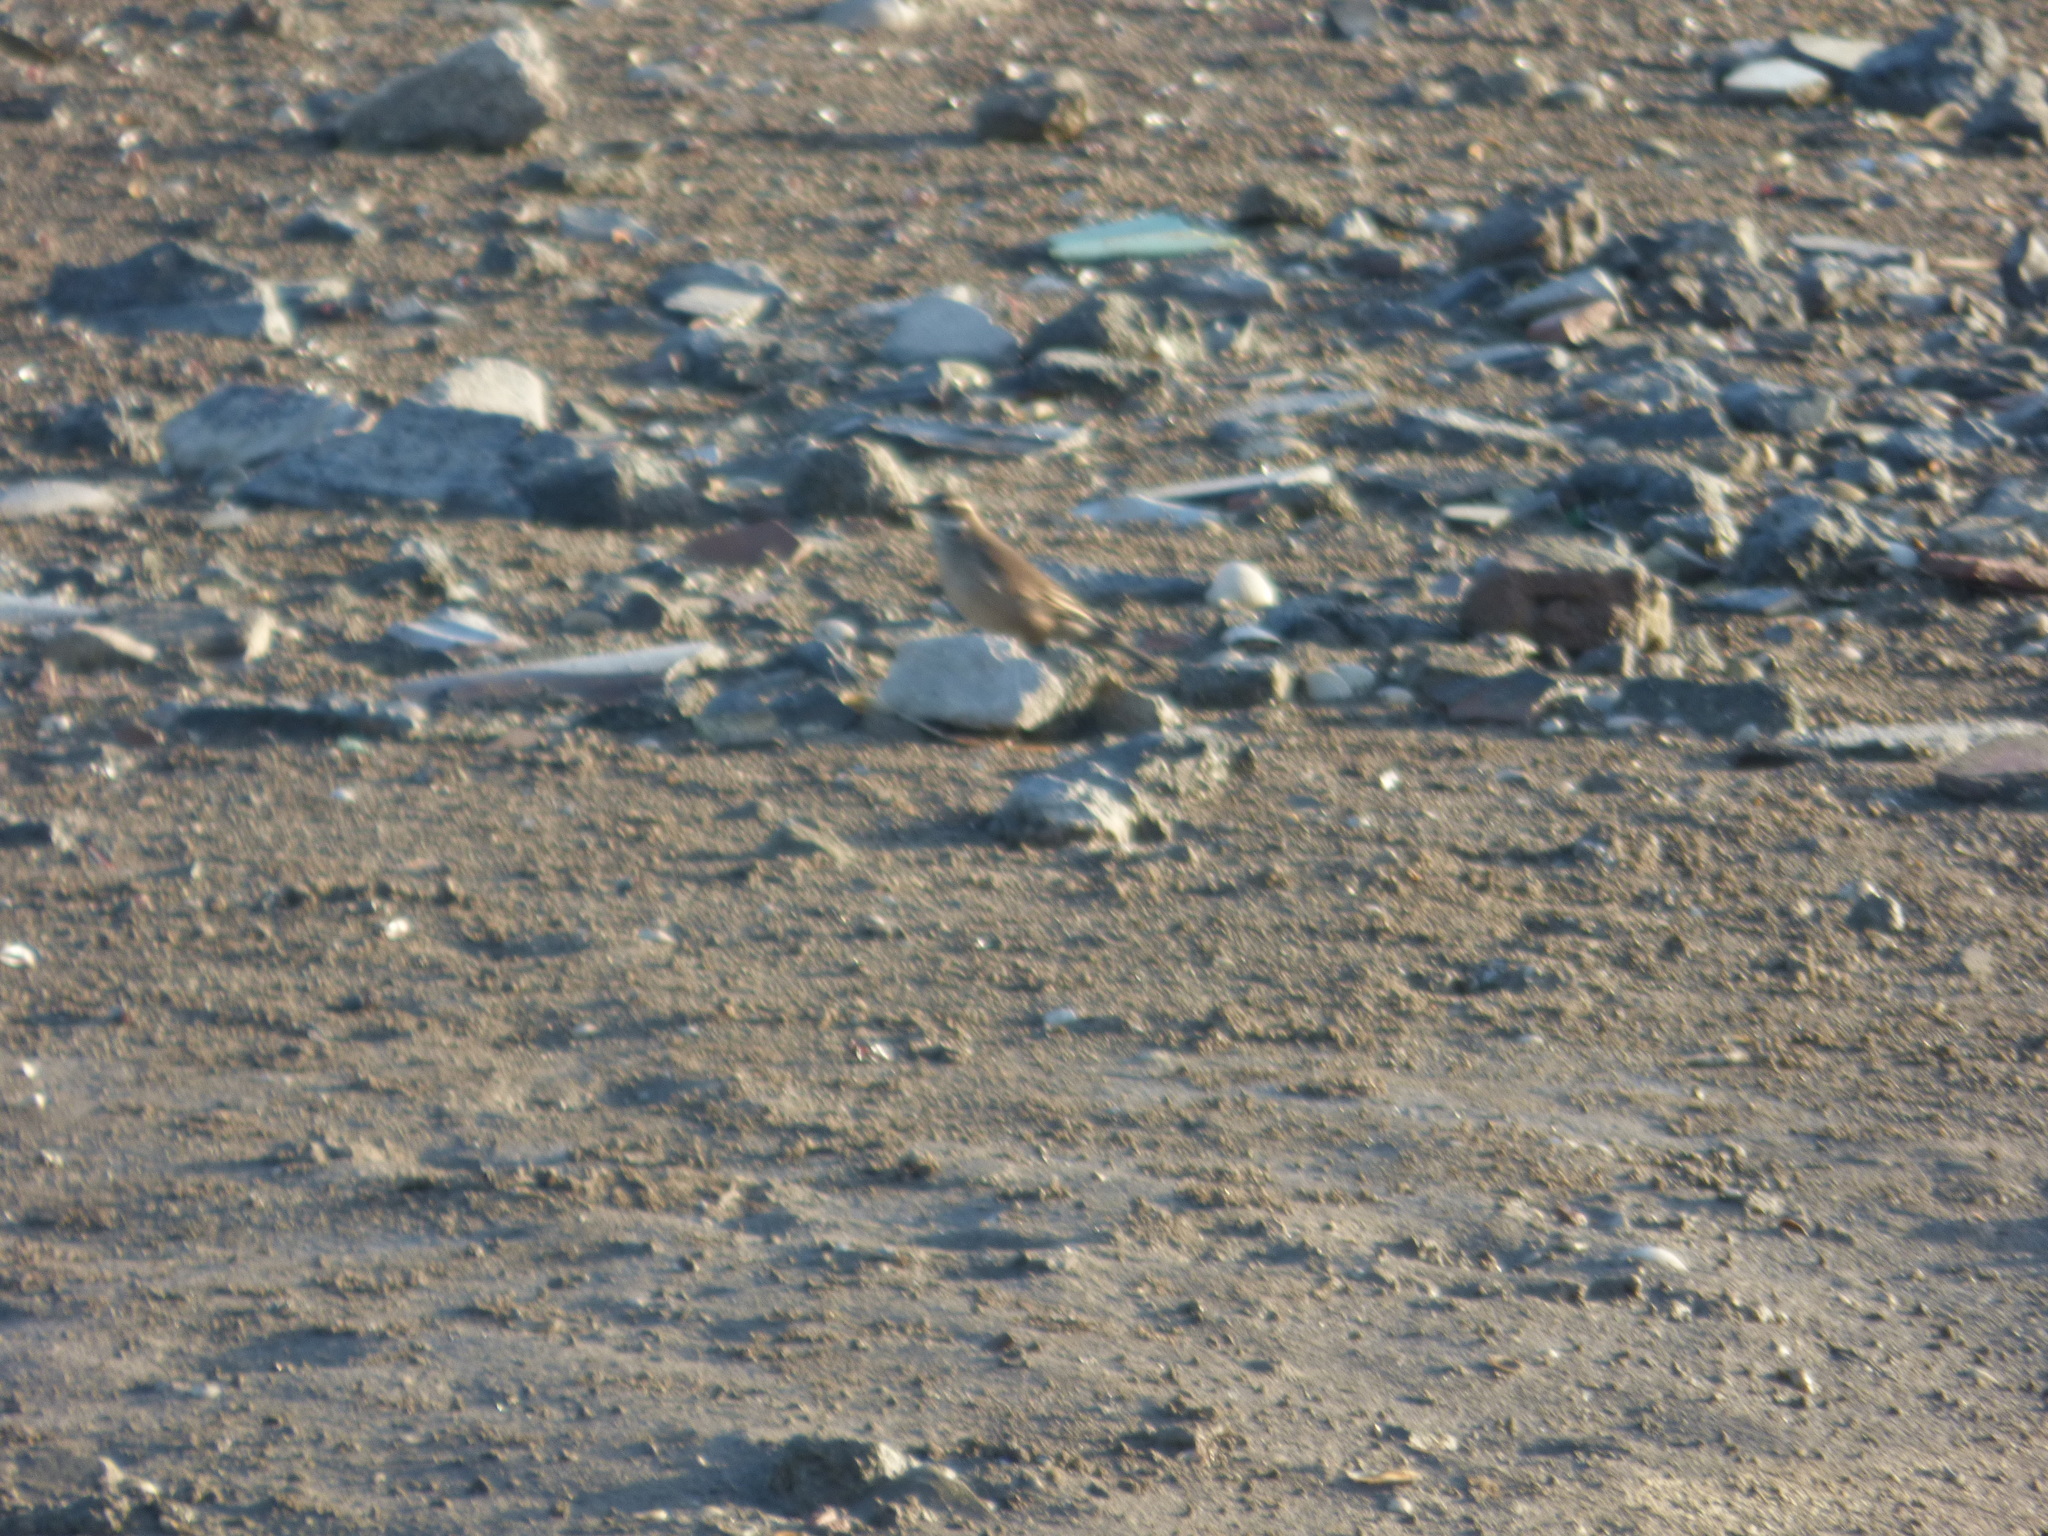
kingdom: Animalia
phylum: Chordata
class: Aves
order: Passeriformes
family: Furnariidae
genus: Cinclodes
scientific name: Cinclodes fuscus
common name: Buff-winged cinclodes
